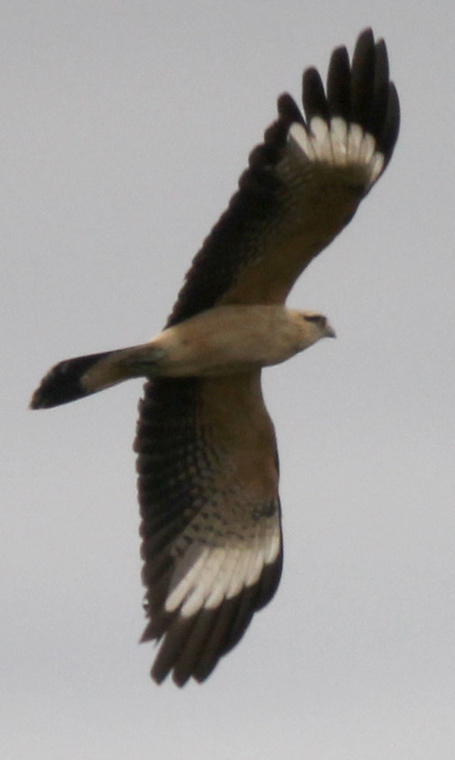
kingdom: Animalia
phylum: Chordata
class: Aves
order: Falconiformes
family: Falconidae
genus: Daptrius
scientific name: Daptrius
